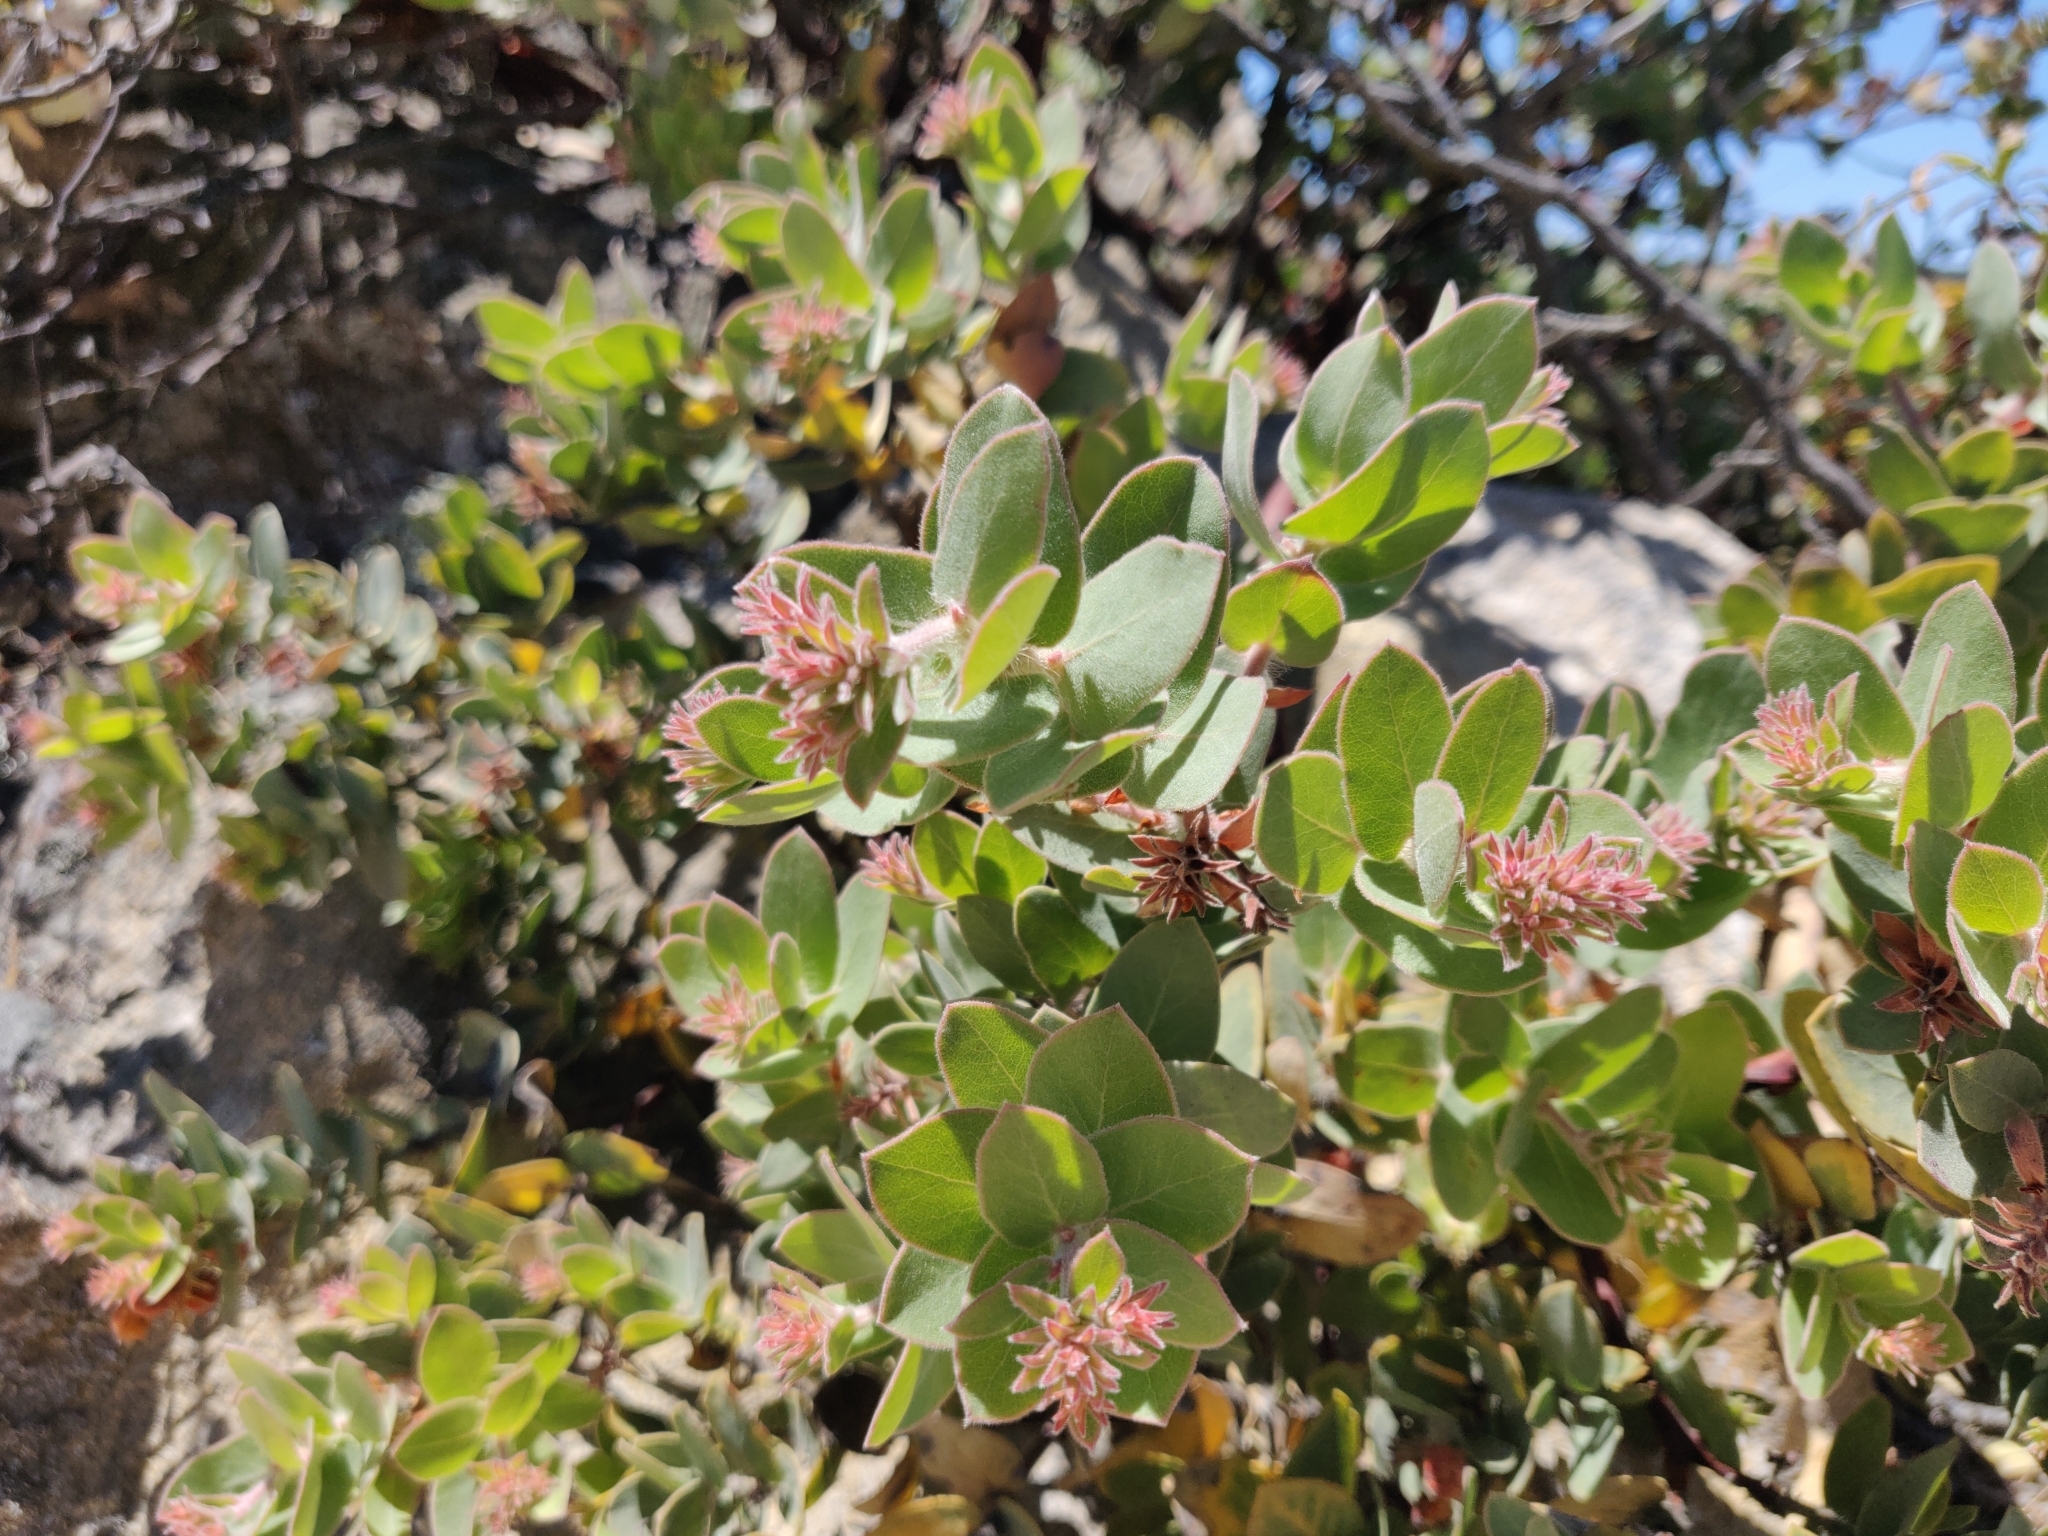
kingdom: Plantae
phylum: Tracheophyta
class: Magnoliopsida
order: Ericales
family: Ericaceae
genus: Arctostaphylos
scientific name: Arctostaphylos auriculata
